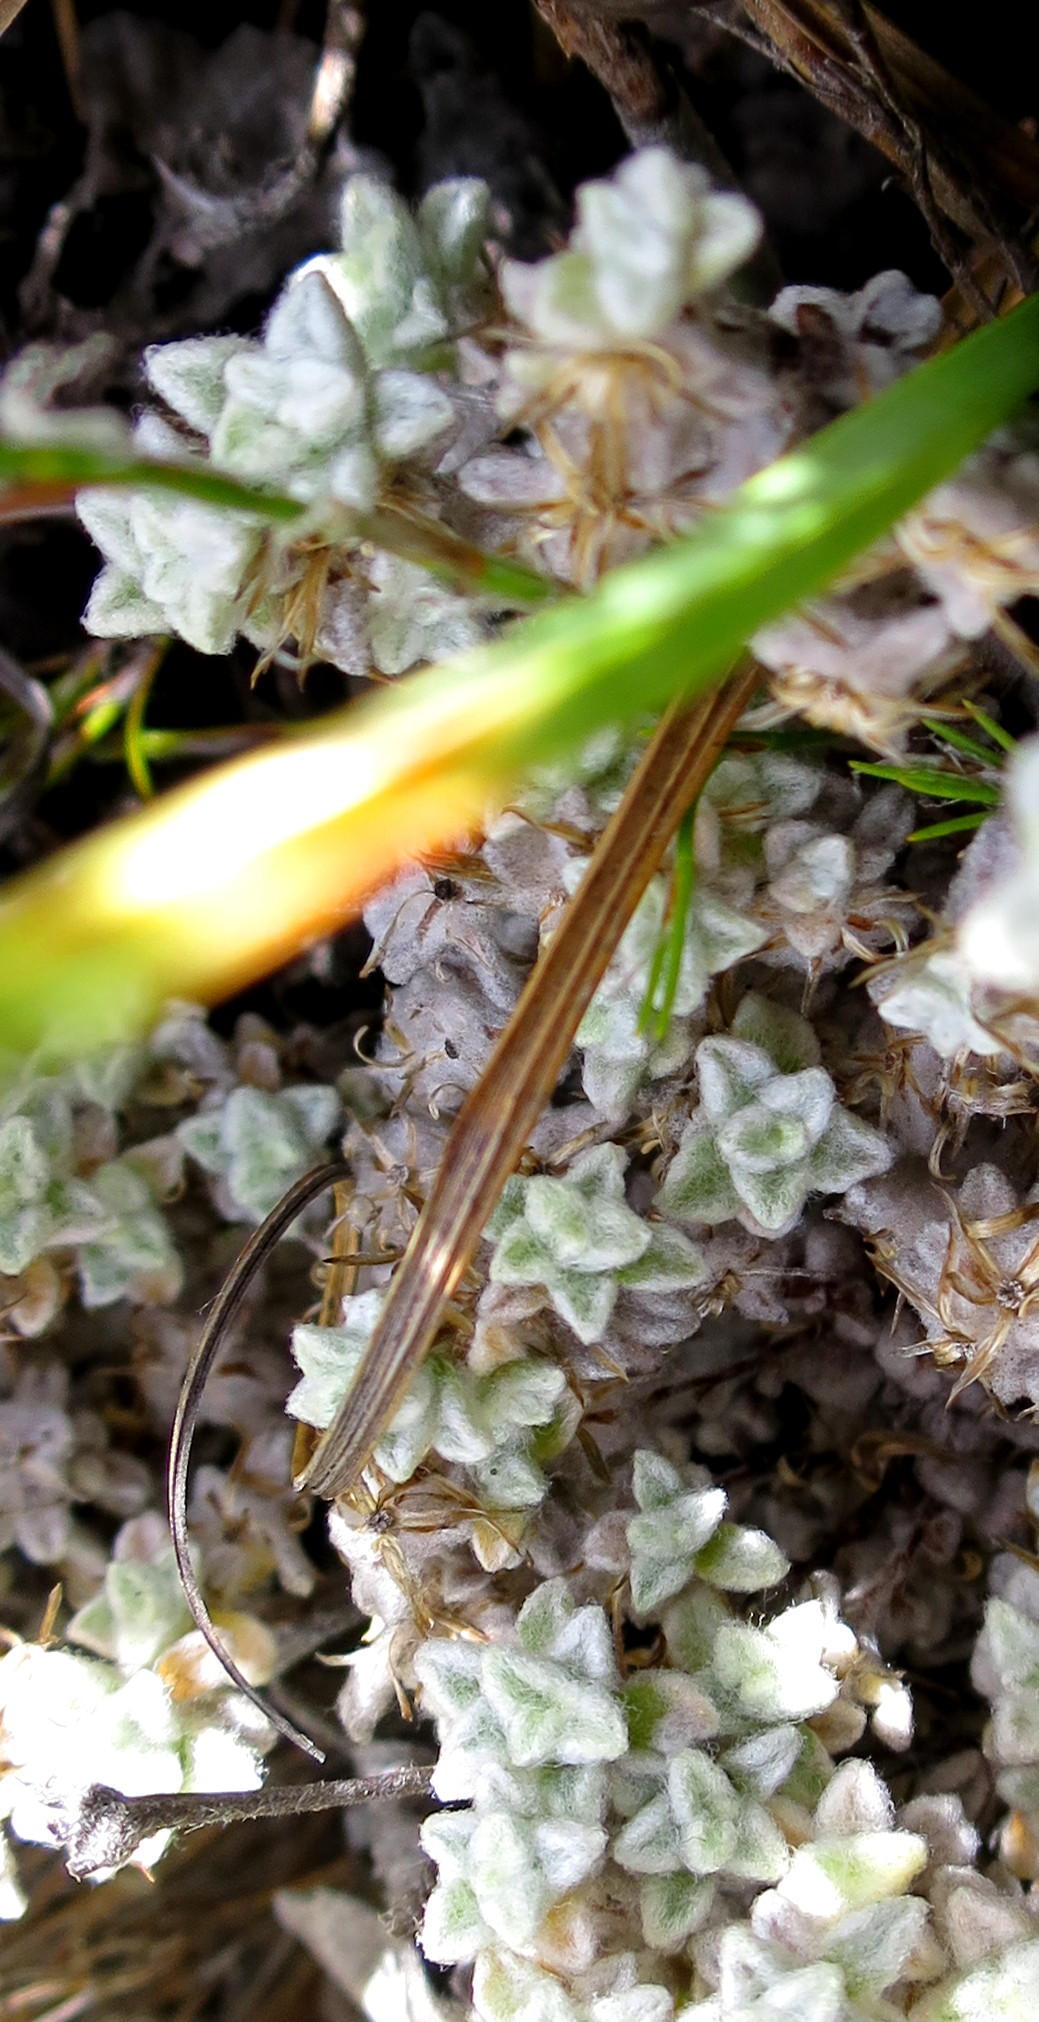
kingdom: Plantae
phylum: Tracheophyta
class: Magnoliopsida
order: Asterales
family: Asteraceae
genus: Helichrysum
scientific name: Helichrysum saxicola
